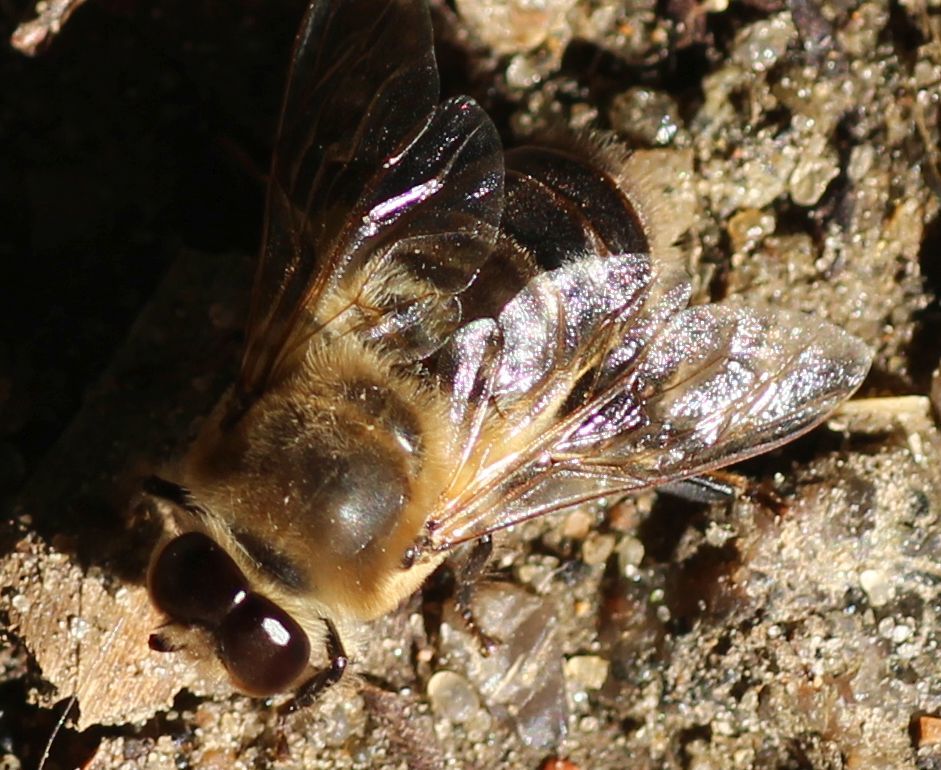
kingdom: Animalia
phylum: Arthropoda
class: Insecta
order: Hymenoptera
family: Apidae
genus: Apis
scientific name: Apis mellifera
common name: Honey bee
